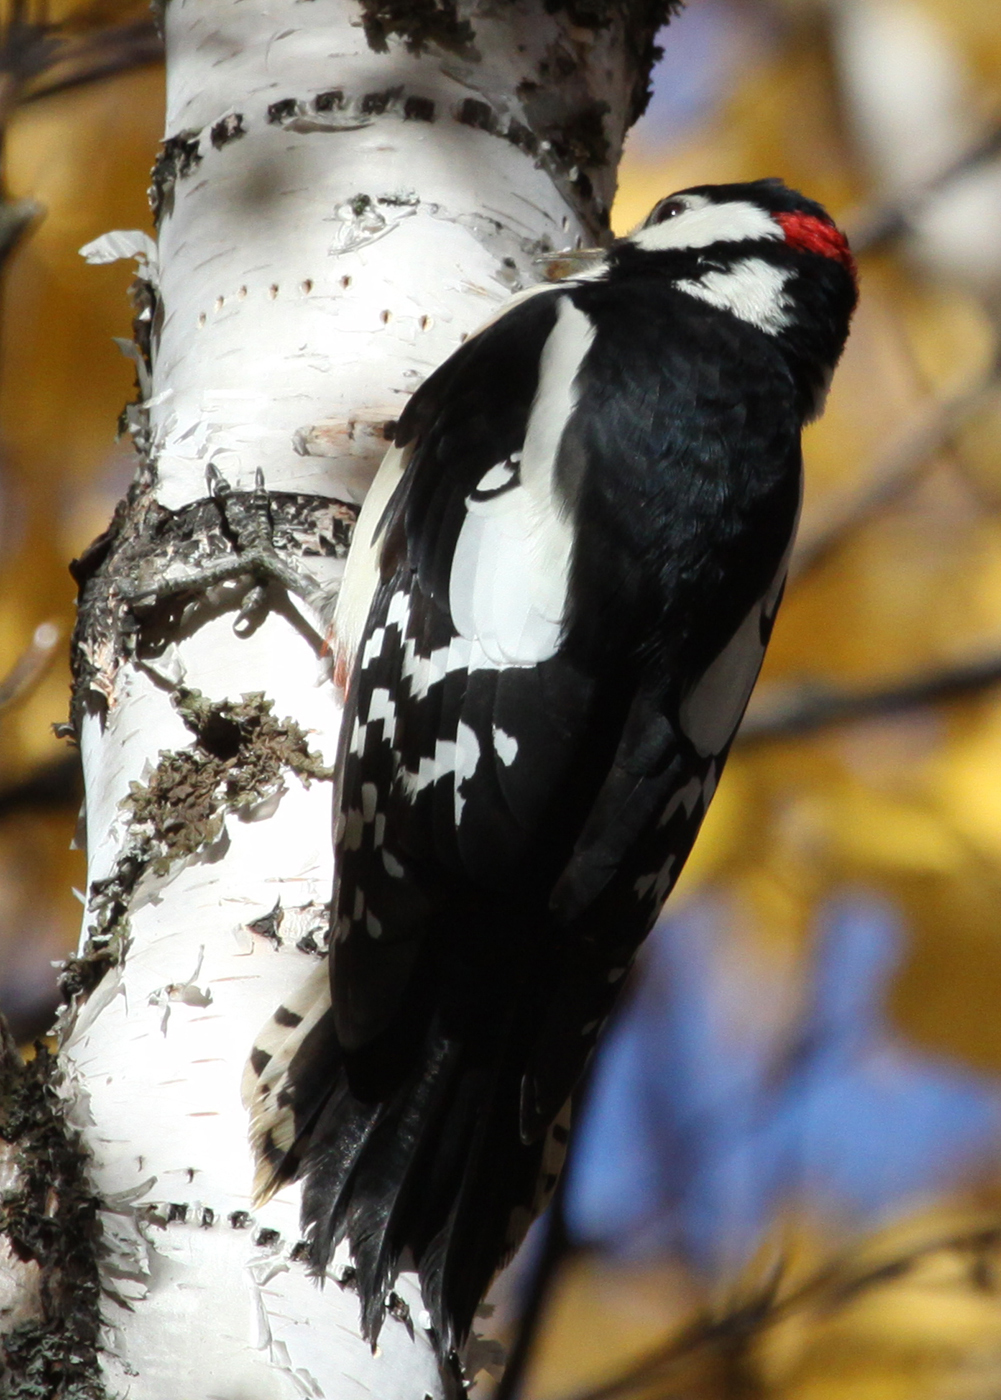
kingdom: Animalia
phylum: Chordata
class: Aves
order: Piciformes
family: Picidae
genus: Dendrocopos
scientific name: Dendrocopos major
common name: Great spotted woodpecker
